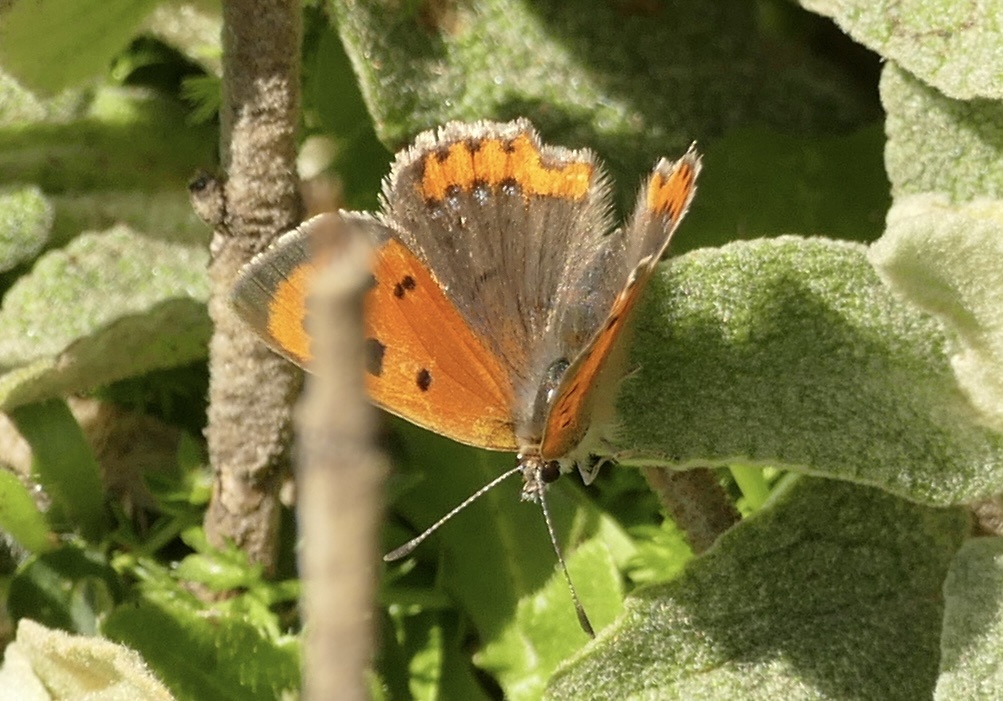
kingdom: Animalia
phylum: Arthropoda
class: Insecta
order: Lepidoptera
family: Lycaenidae
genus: Lycaena
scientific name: Lycaena phlaeas
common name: Small copper
